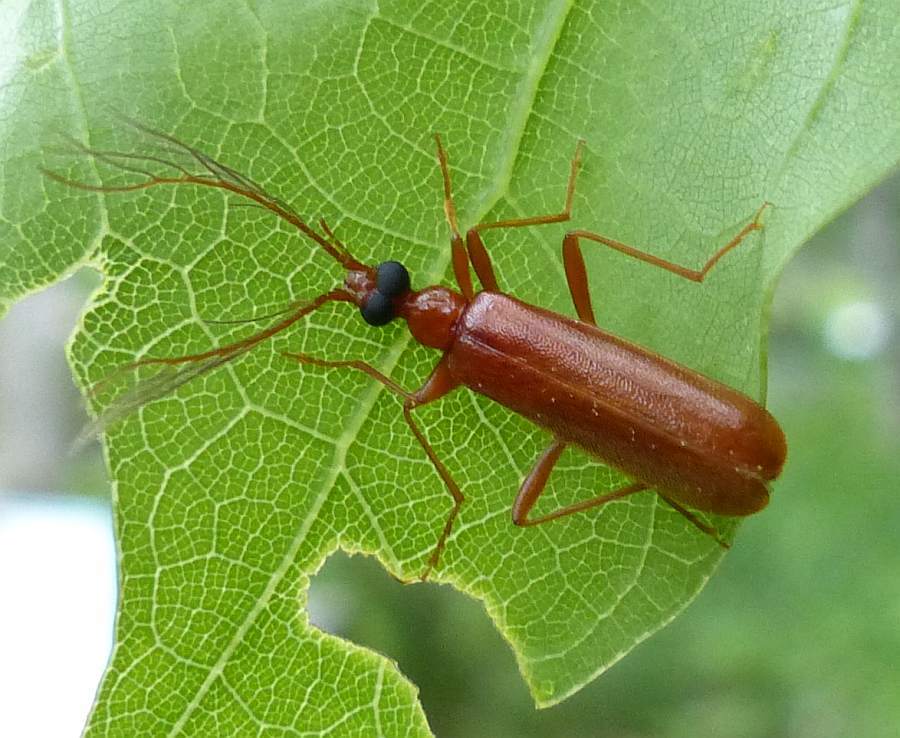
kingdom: Animalia
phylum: Arthropoda
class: Insecta
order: Coleoptera
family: Pyrochroidae
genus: Dendroides
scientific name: Dendroides concolor
